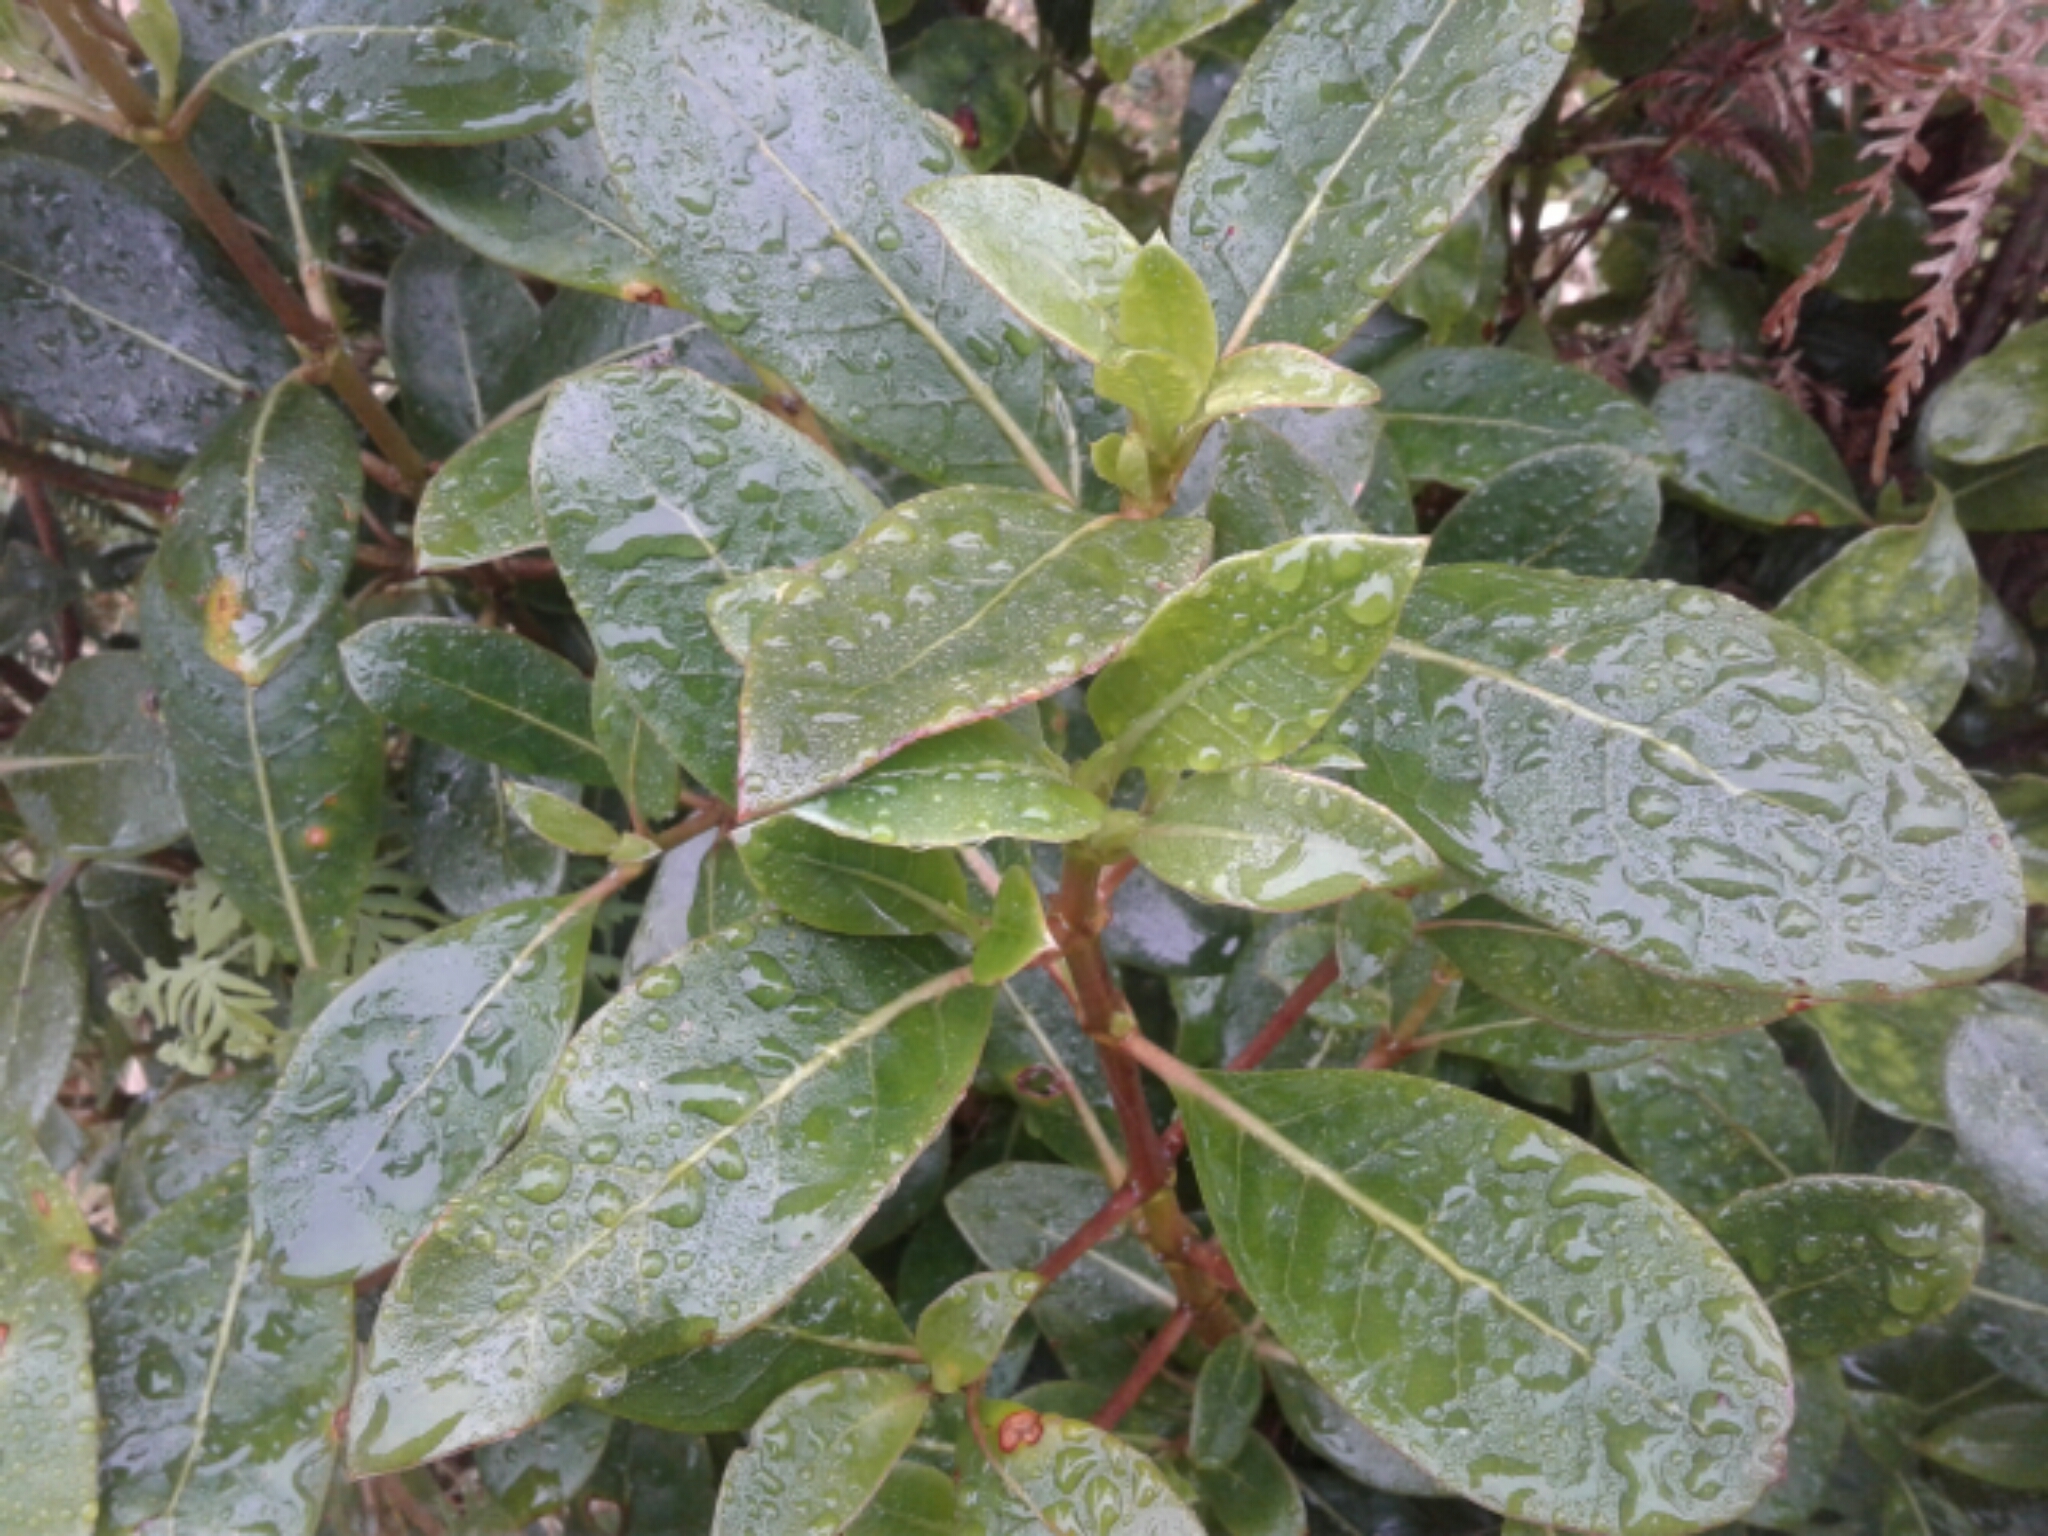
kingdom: Plantae
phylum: Tracheophyta
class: Magnoliopsida
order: Gentianales
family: Rubiaceae
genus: Coprosma
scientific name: Coprosma lucida
